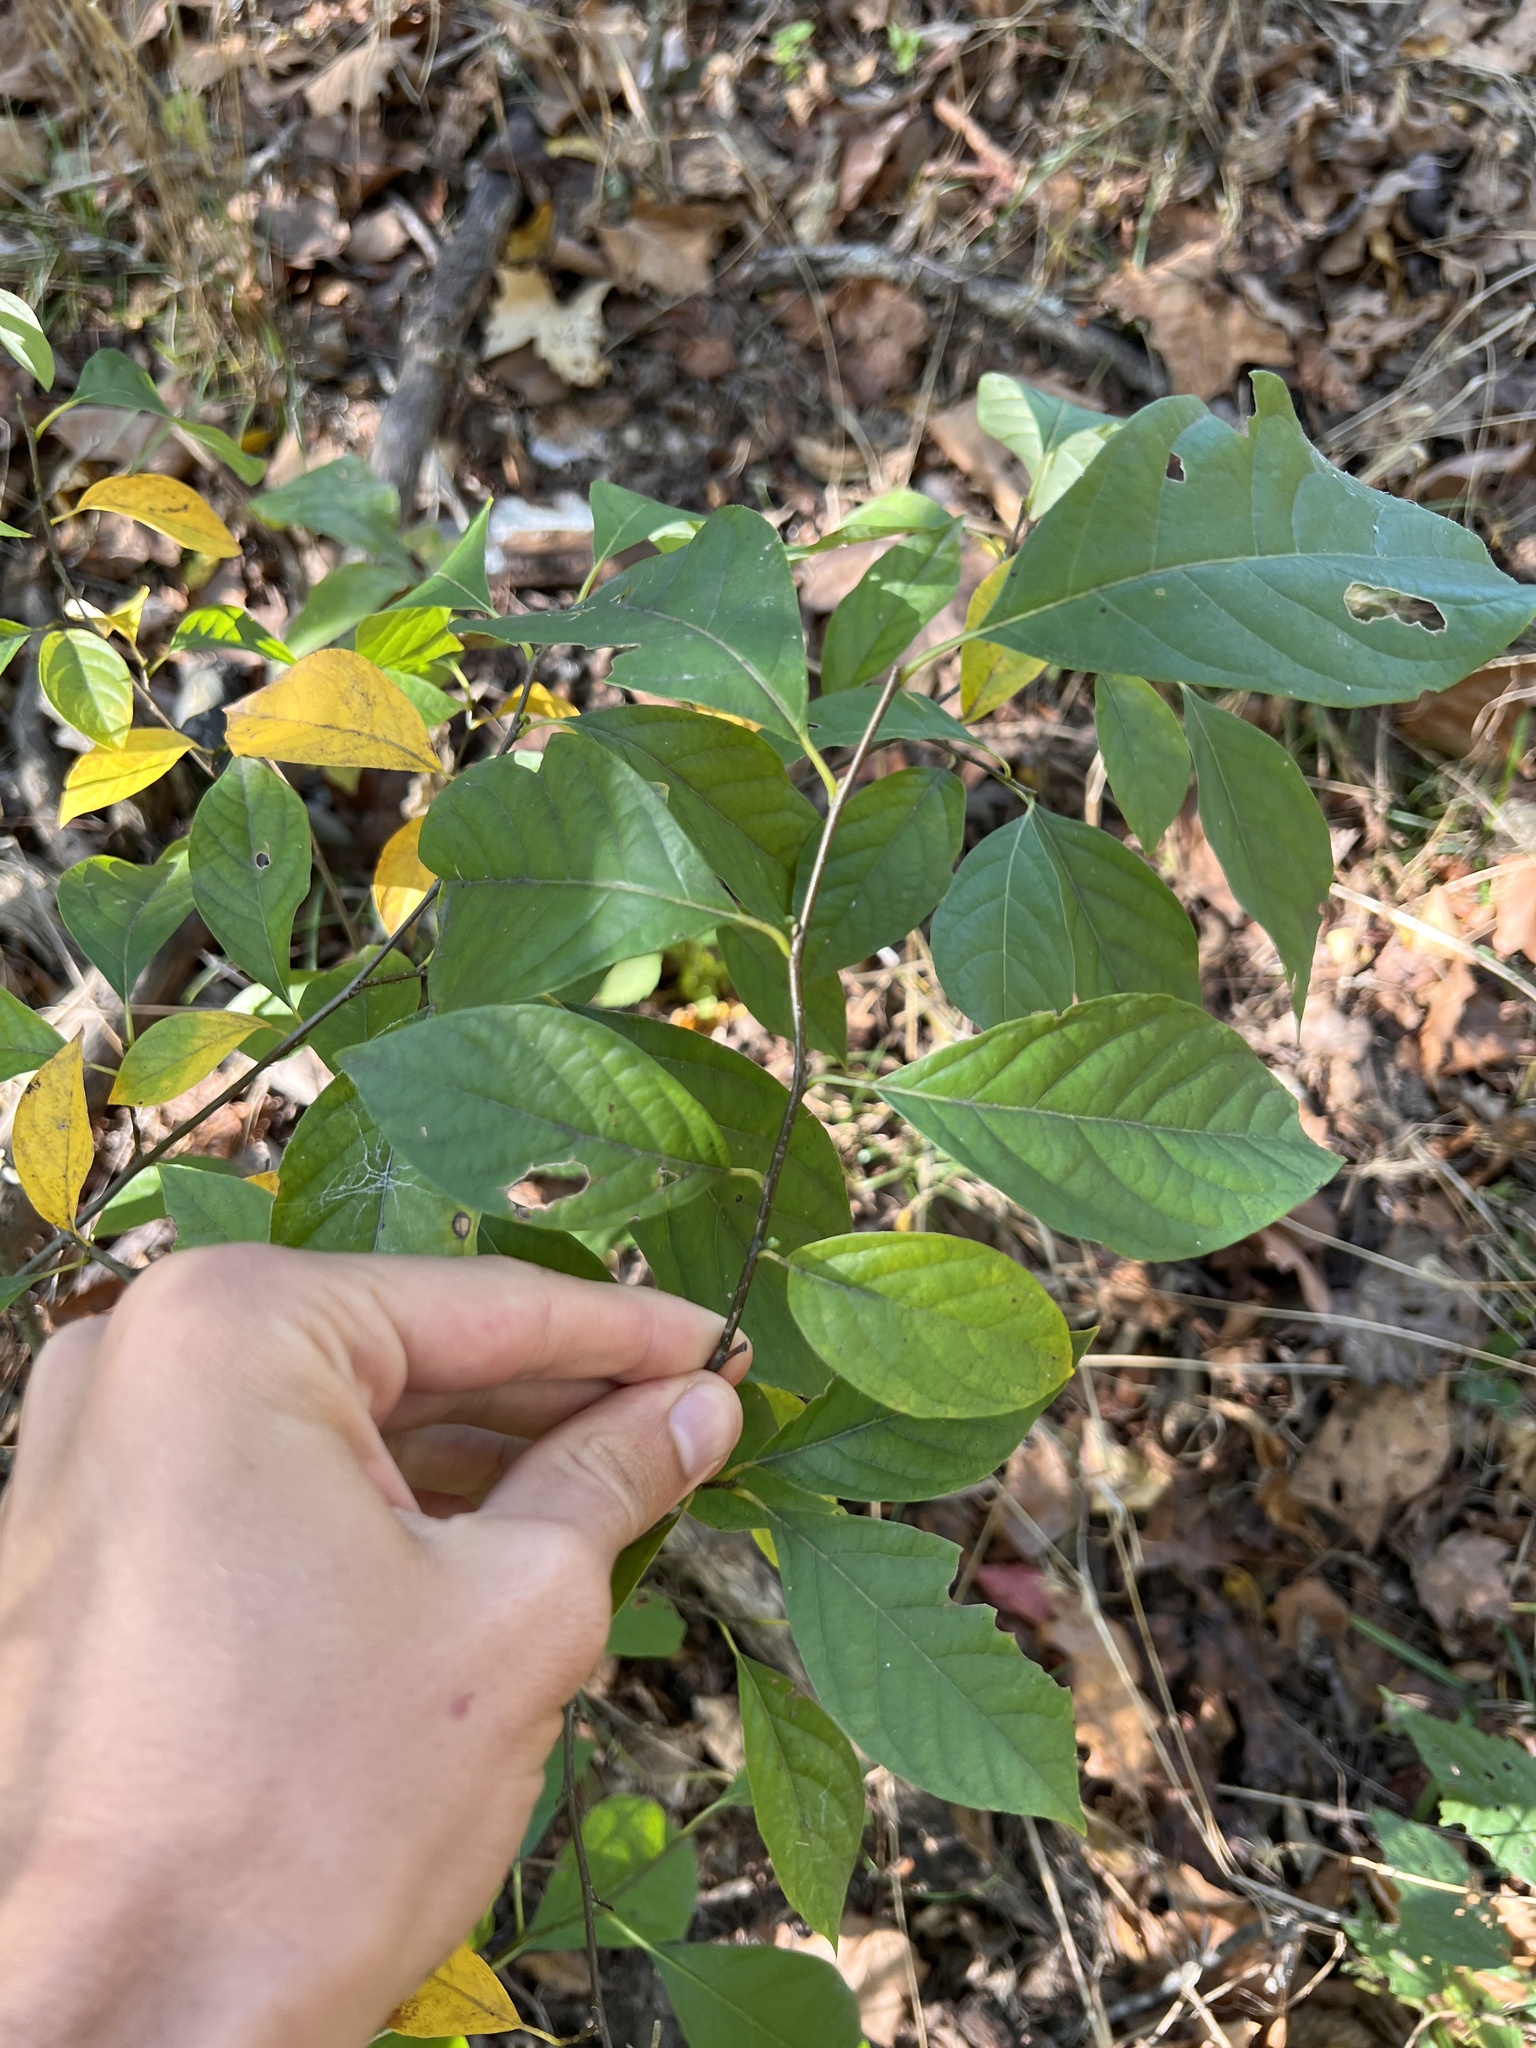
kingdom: Plantae
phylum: Tracheophyta
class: Magnoliopsida
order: Laurales
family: Lauraceae
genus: Lindera
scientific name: Lindera benzoin
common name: Spicebush
